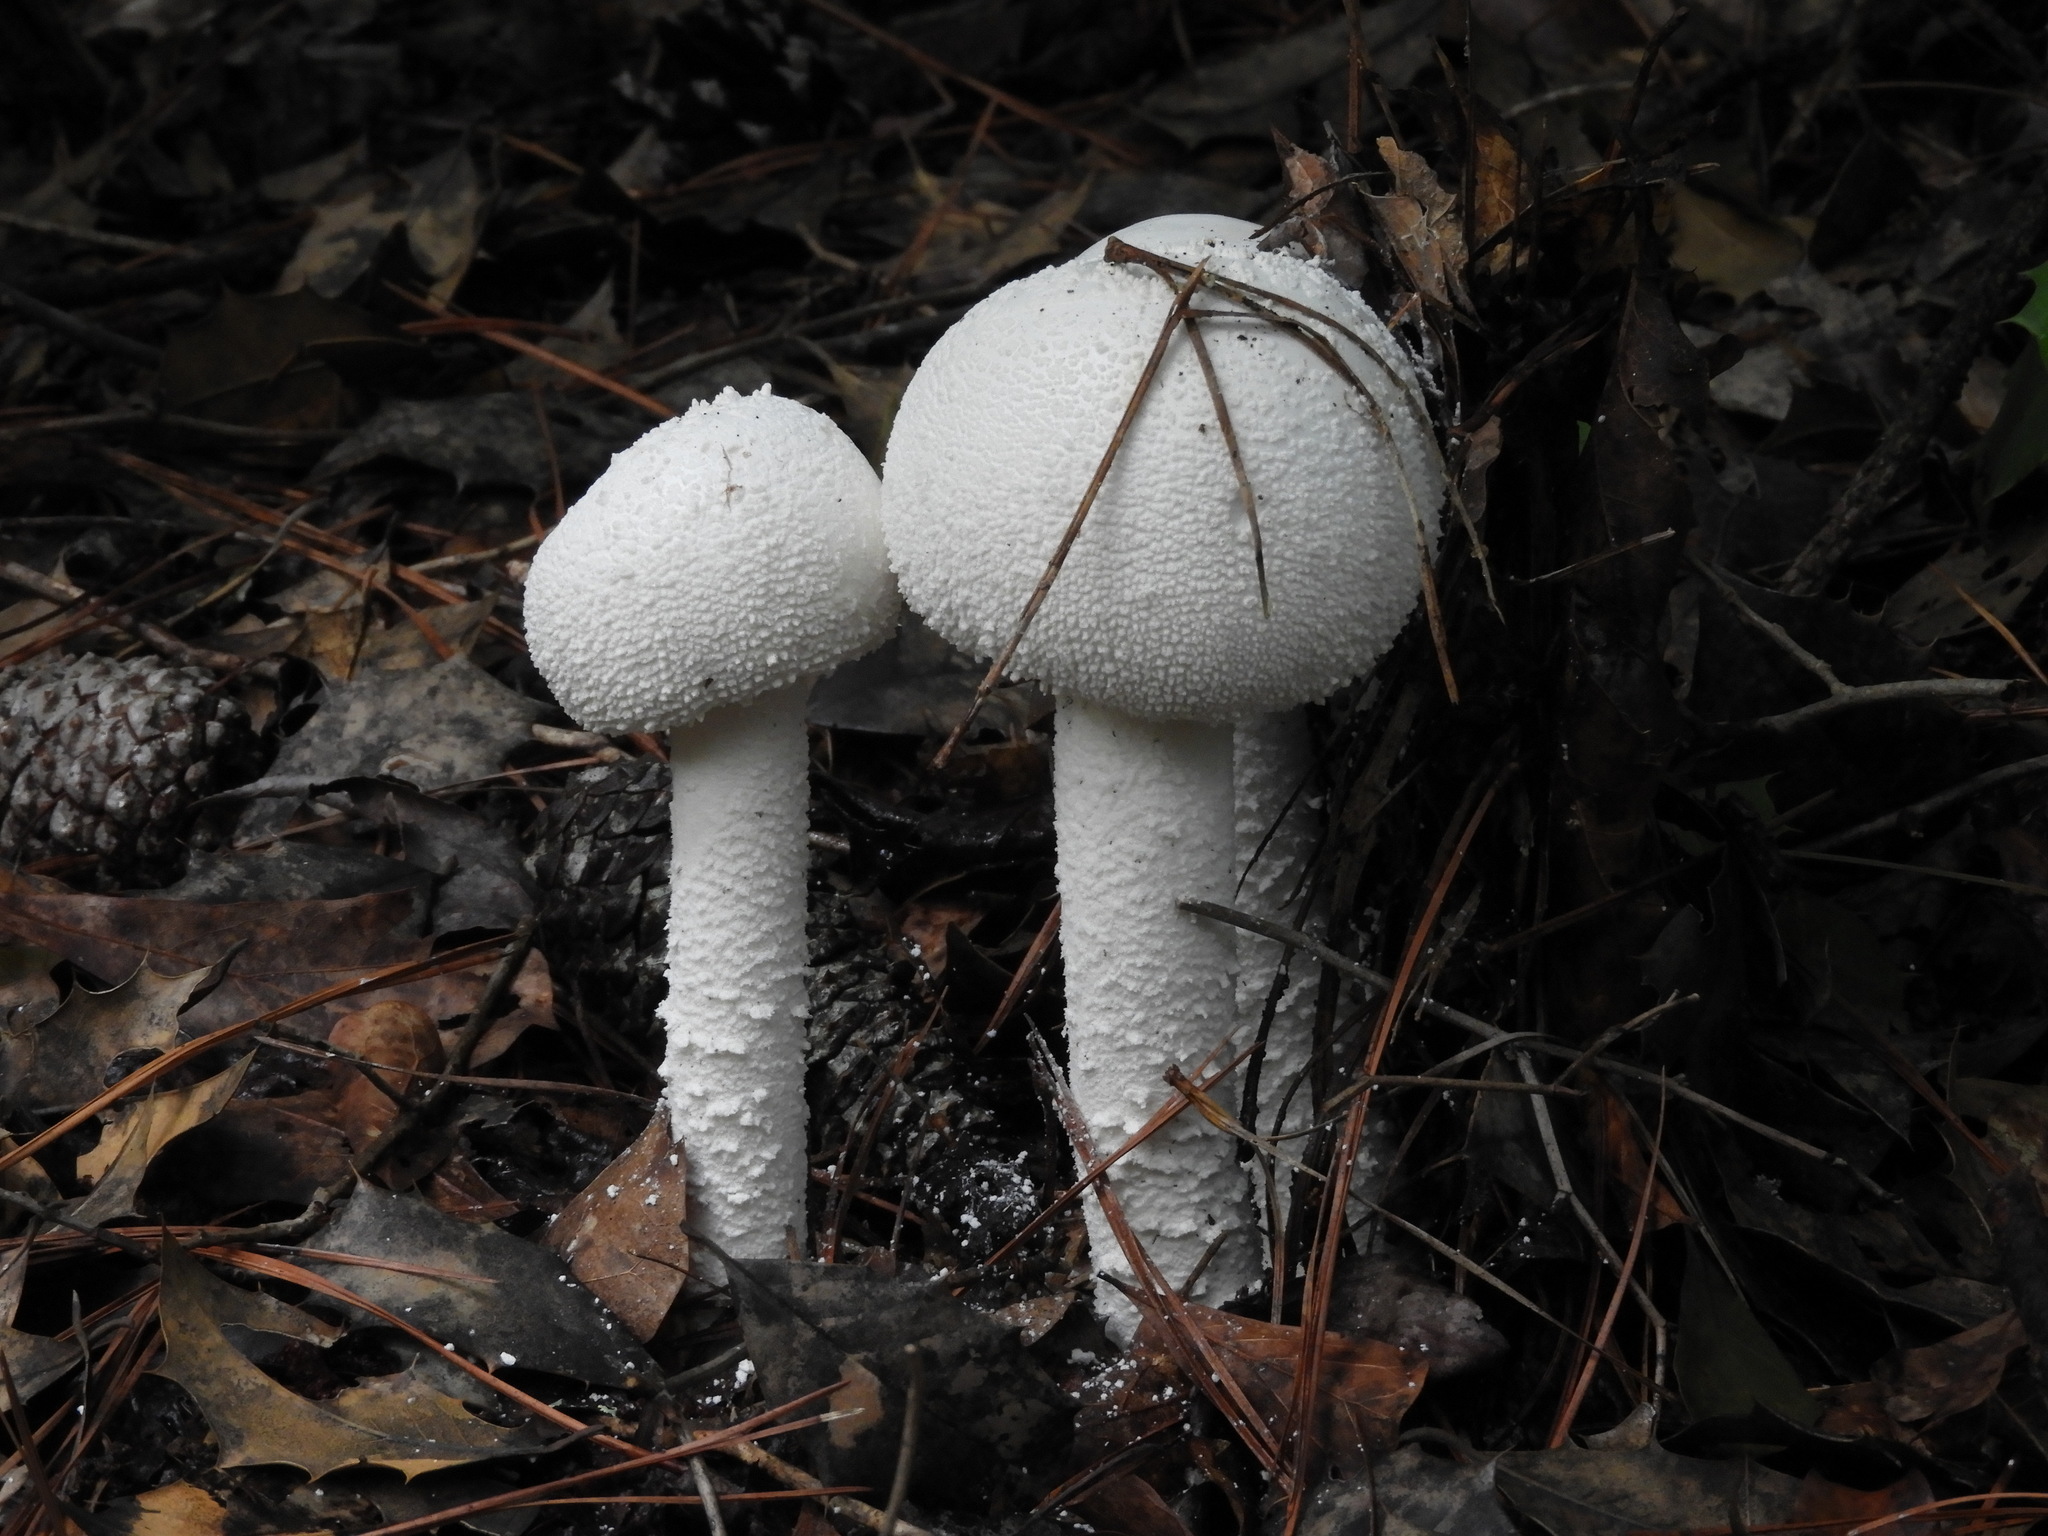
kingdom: Fungi
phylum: Basidiomycota
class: Agaricomycetes
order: Agaricales
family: Amanitaceae
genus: Amanita
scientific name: Amanita
